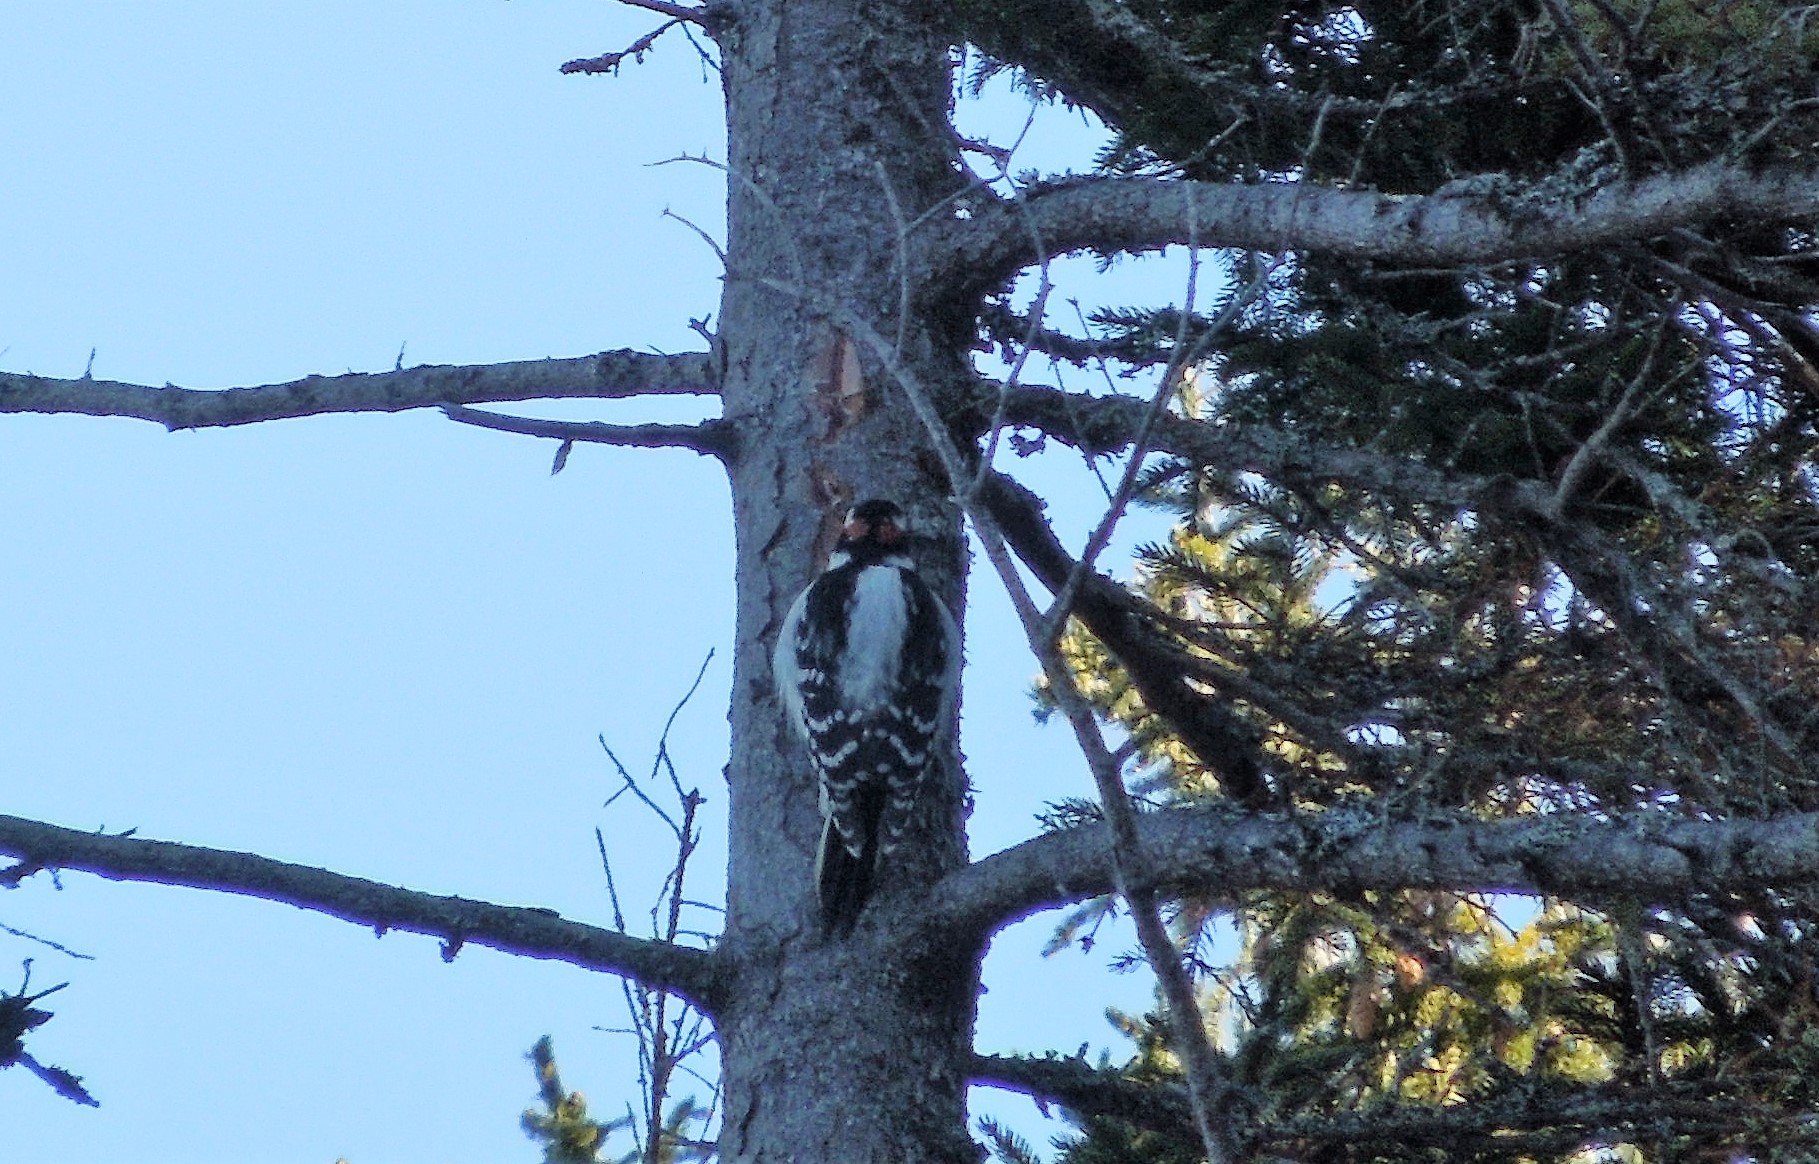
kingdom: Animalia
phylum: Chordata
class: Aves
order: Piciformes
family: Picidae
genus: Leuconotopicus
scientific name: Leuconotopicus villosus
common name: Hairy woodpecker
